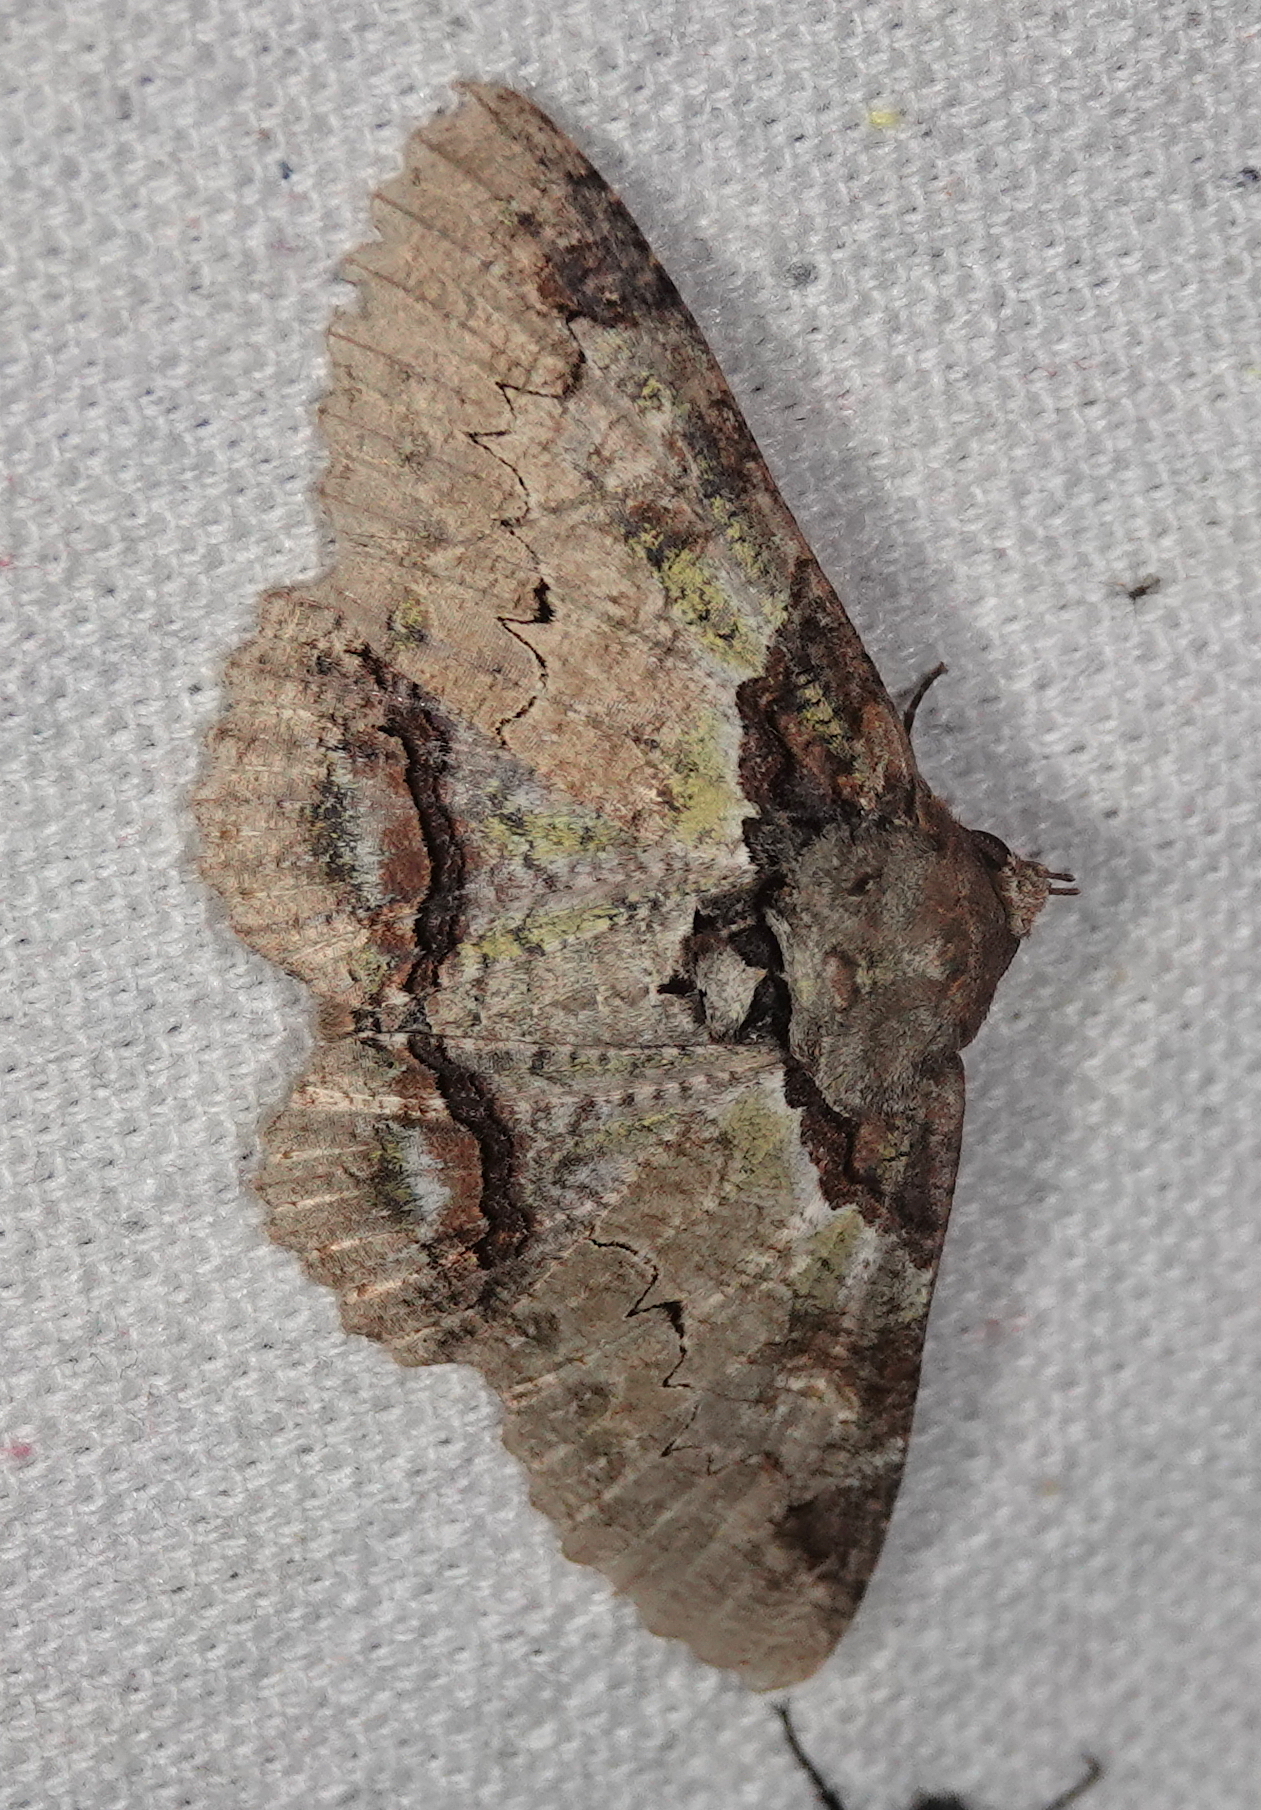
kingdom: Animalia
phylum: Arthropoda
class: Insecta
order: Lepidoptera
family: Erebidae
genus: Zale
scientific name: Zale galactea
